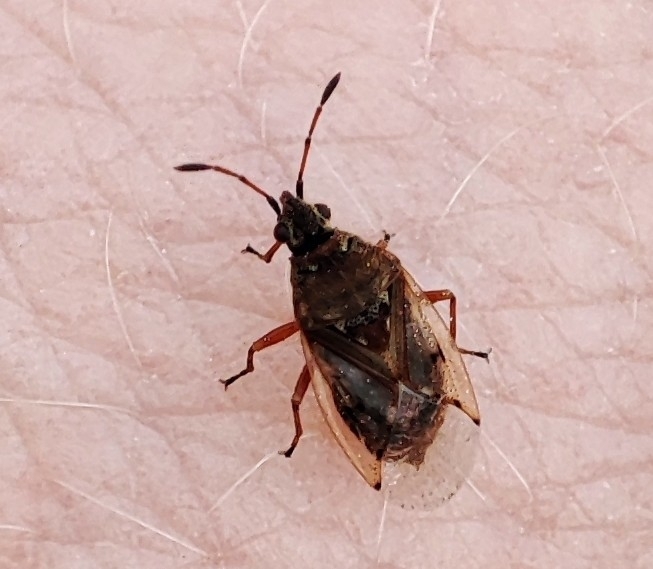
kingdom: Animalia
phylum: Arthropoda
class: Insecta
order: Hemiptera
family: Lygaeidae
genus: Kleidocerys
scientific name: Kleidocerys resedae
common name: Birch catkin bug
